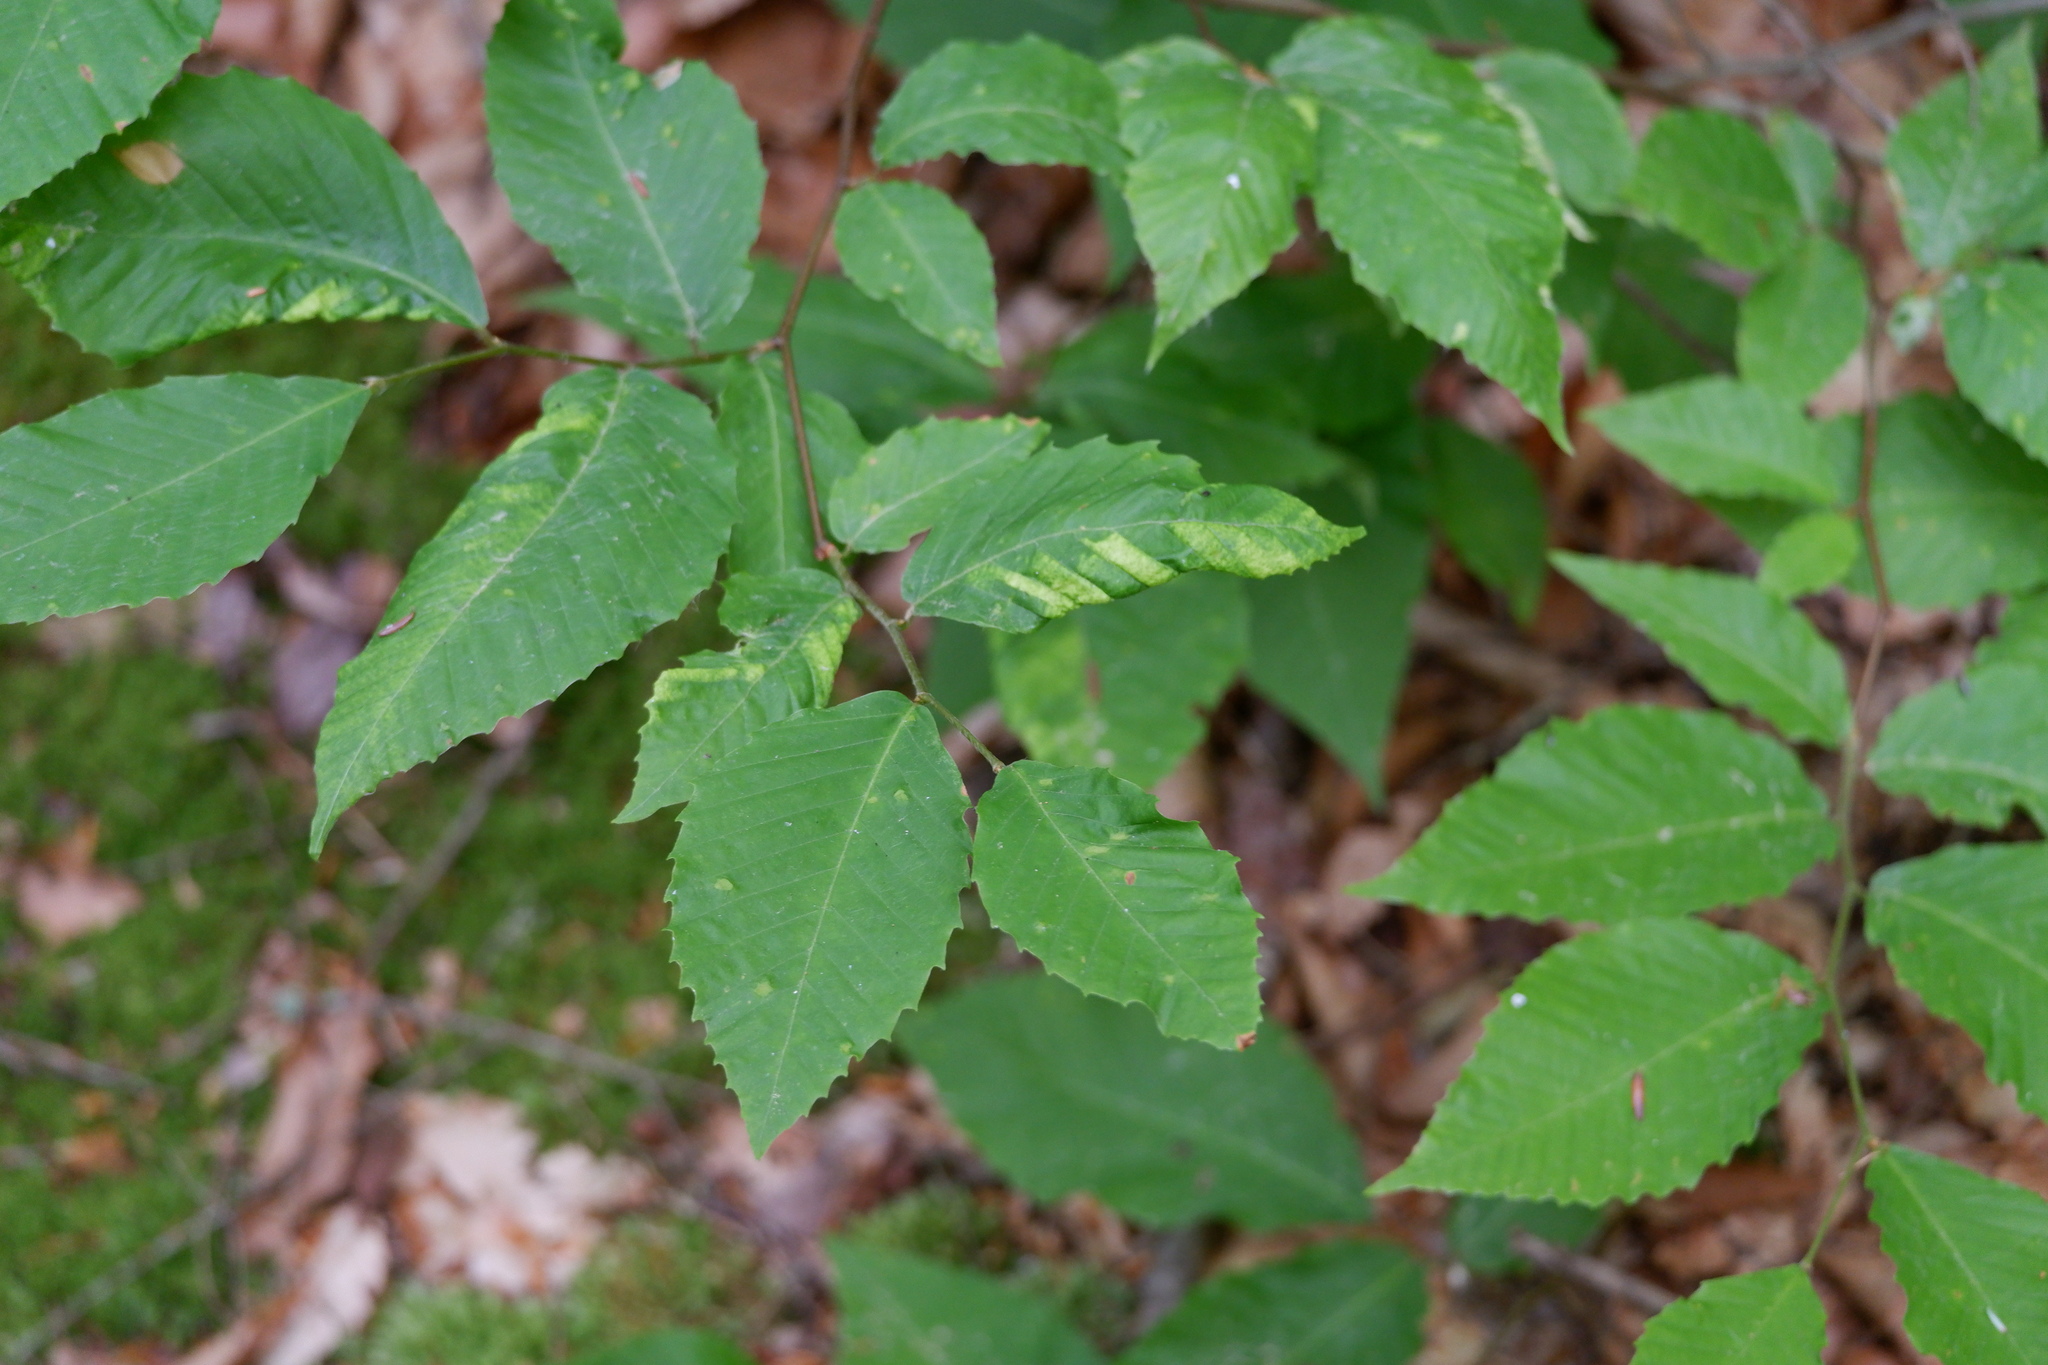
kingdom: Animalia
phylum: Nematoda
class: Chromadorea
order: Rhabditida
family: Anguinidae
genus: Litylenchus
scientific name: Litylenchus crenatae
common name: Beech leaf disease
